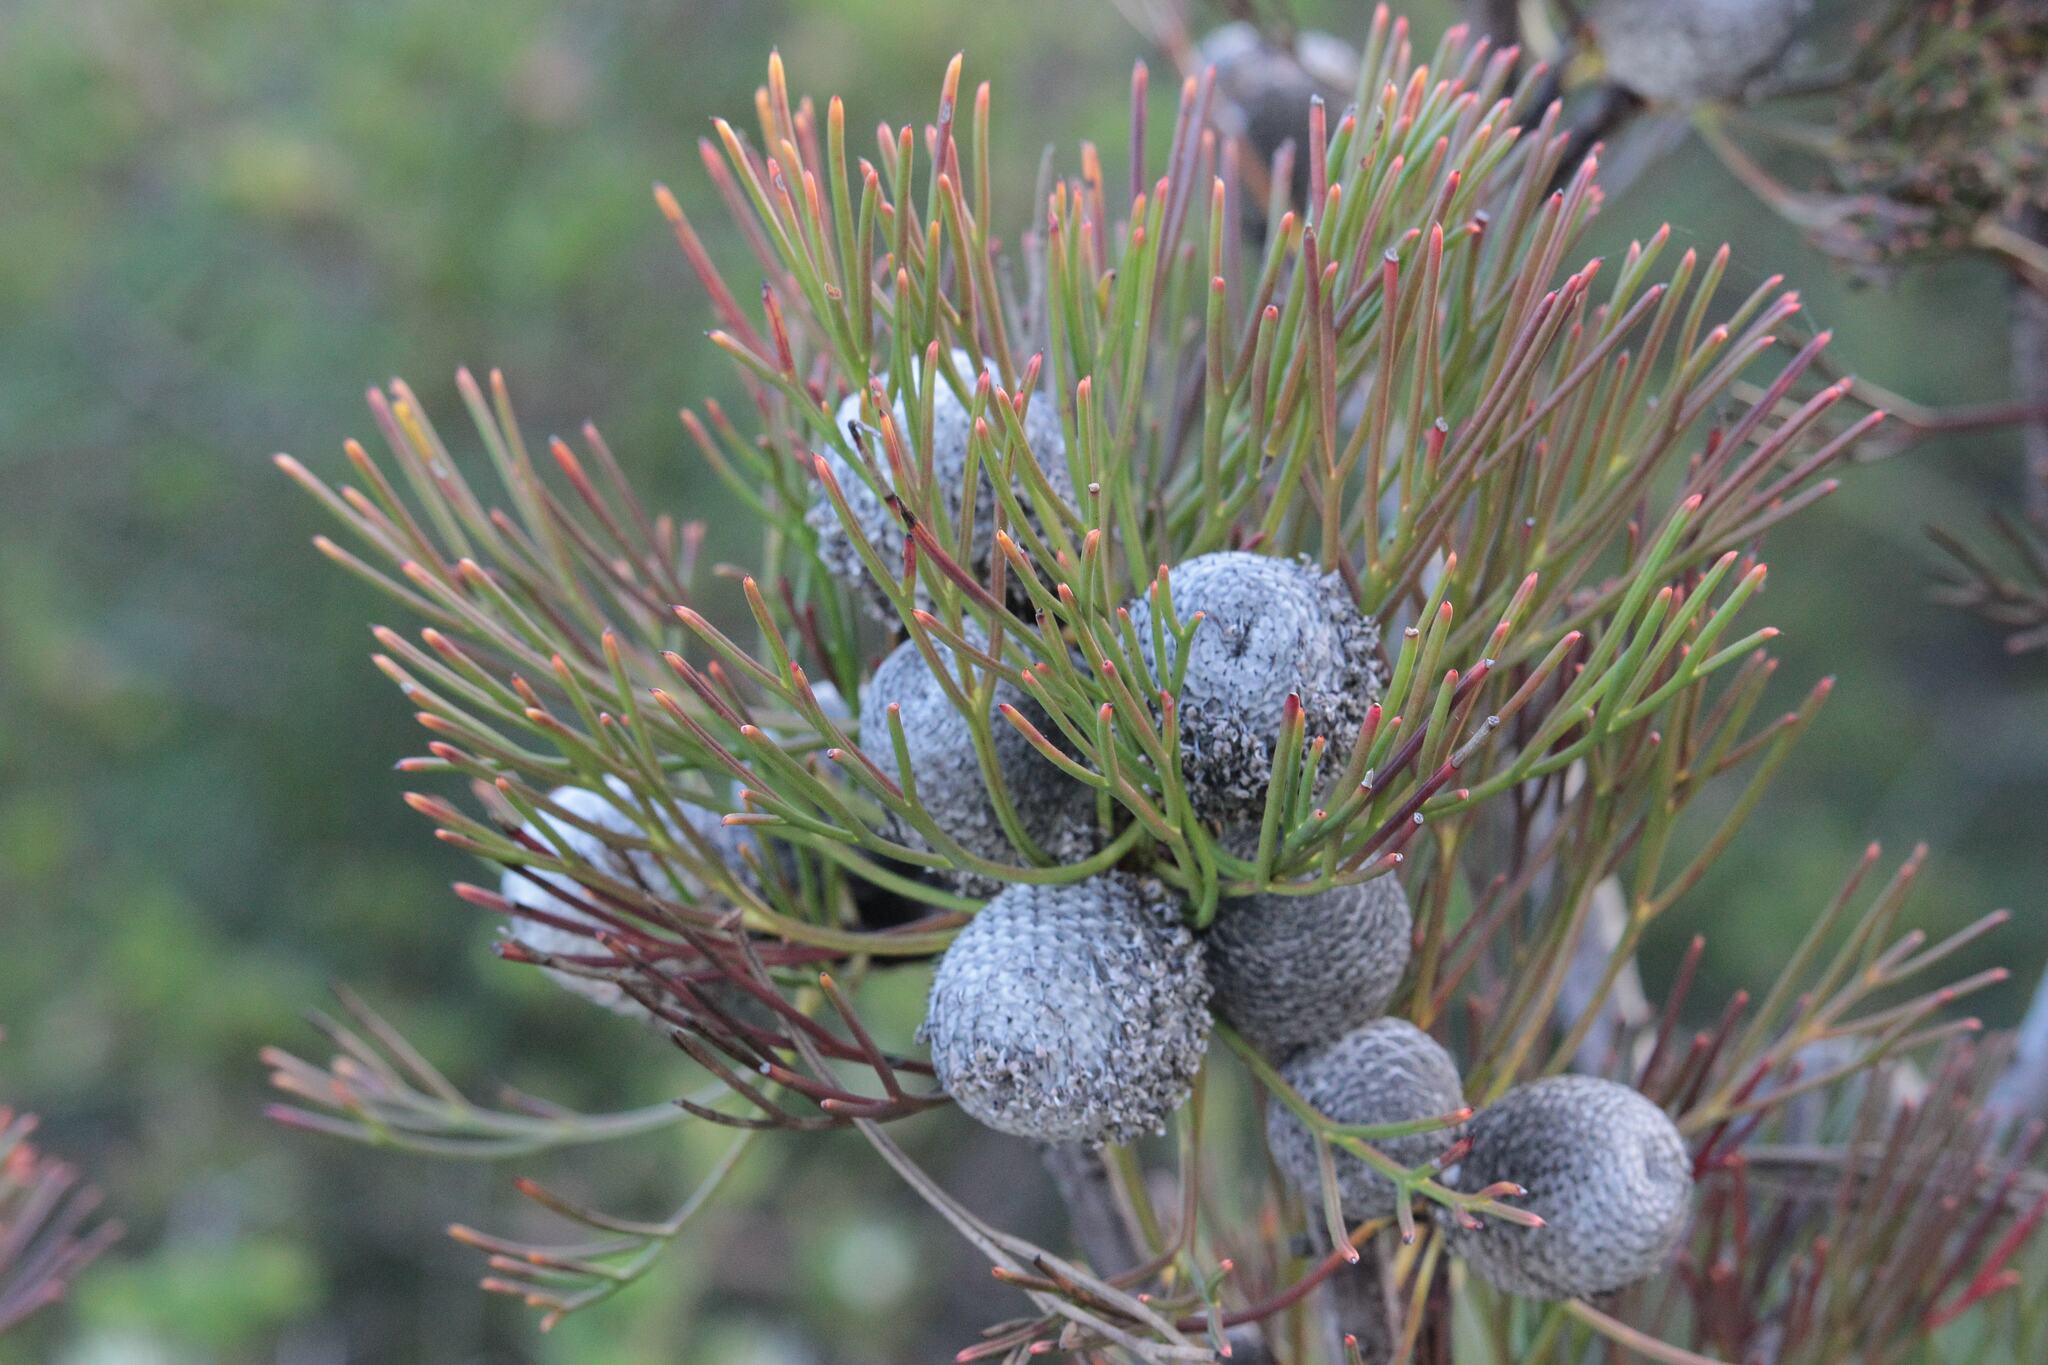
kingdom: Plantae
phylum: Tracheophyta
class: Magnoliopsida
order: Proteales
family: Proteaceae
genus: Isopogon
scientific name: Isopogon anethifolius
